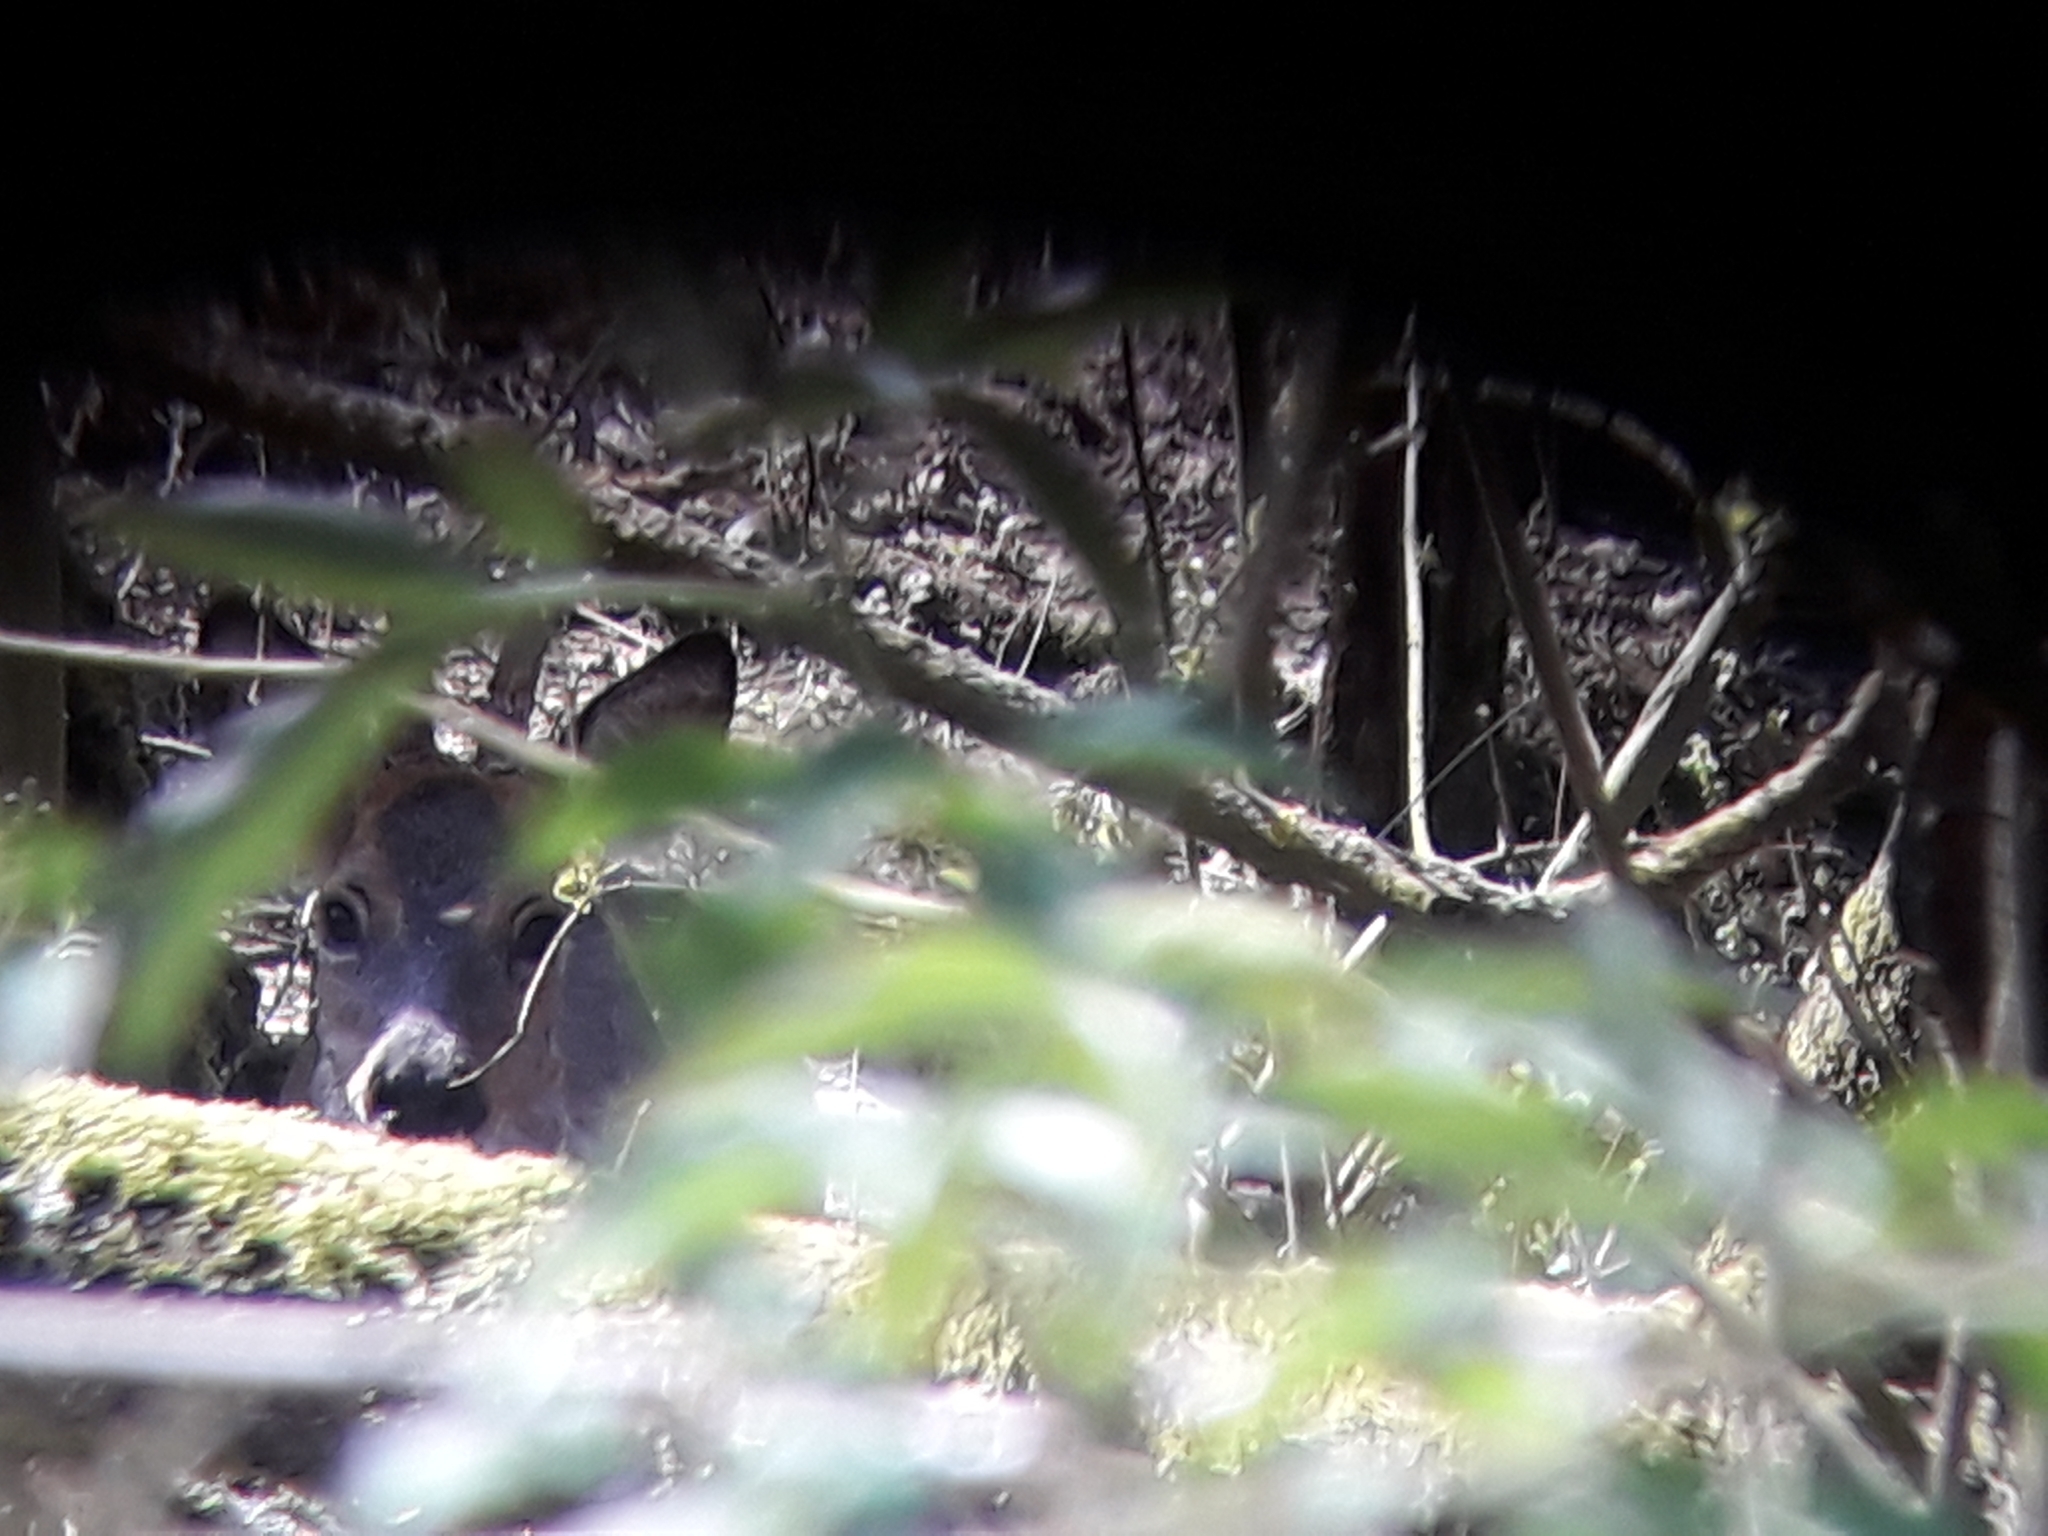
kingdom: Animalia
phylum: Chordata
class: Mammalia
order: Artiodactyla
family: Cervidae
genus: Capreolus
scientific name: Capreolus capreolus
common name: Western roe deer
